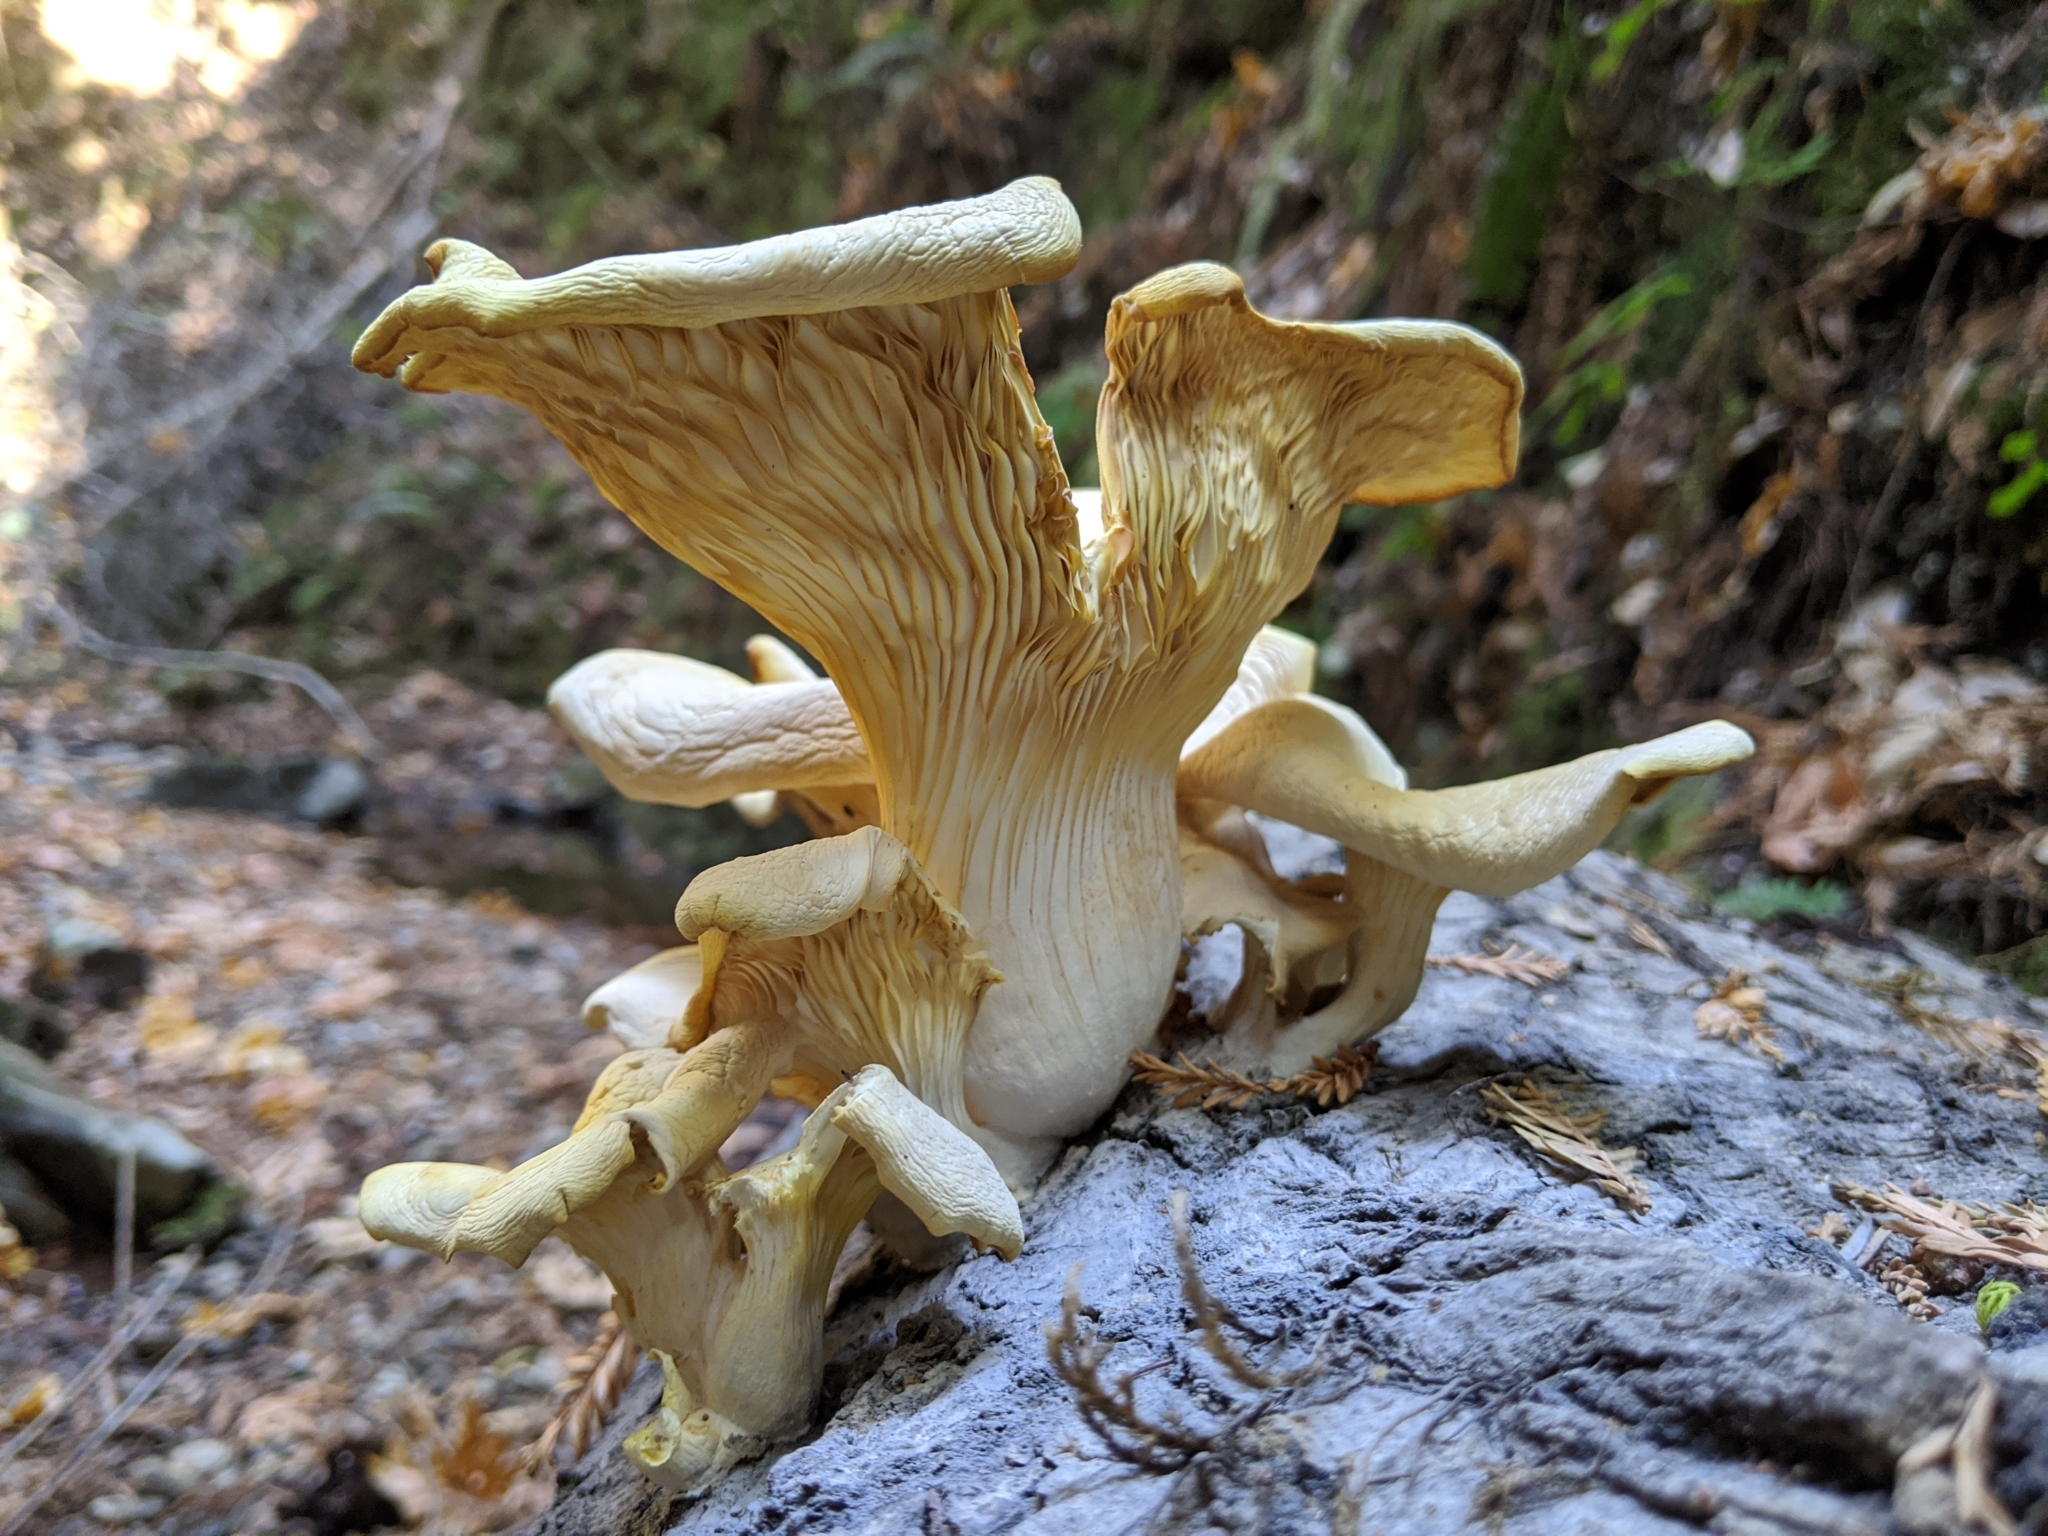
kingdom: Fungi
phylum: Basidiomycota
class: Agaricomycetes
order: Agaricales
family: Pleurotaceae
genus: Pleurotus
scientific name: Pleurotus pulmonarius
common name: Pale oyster
